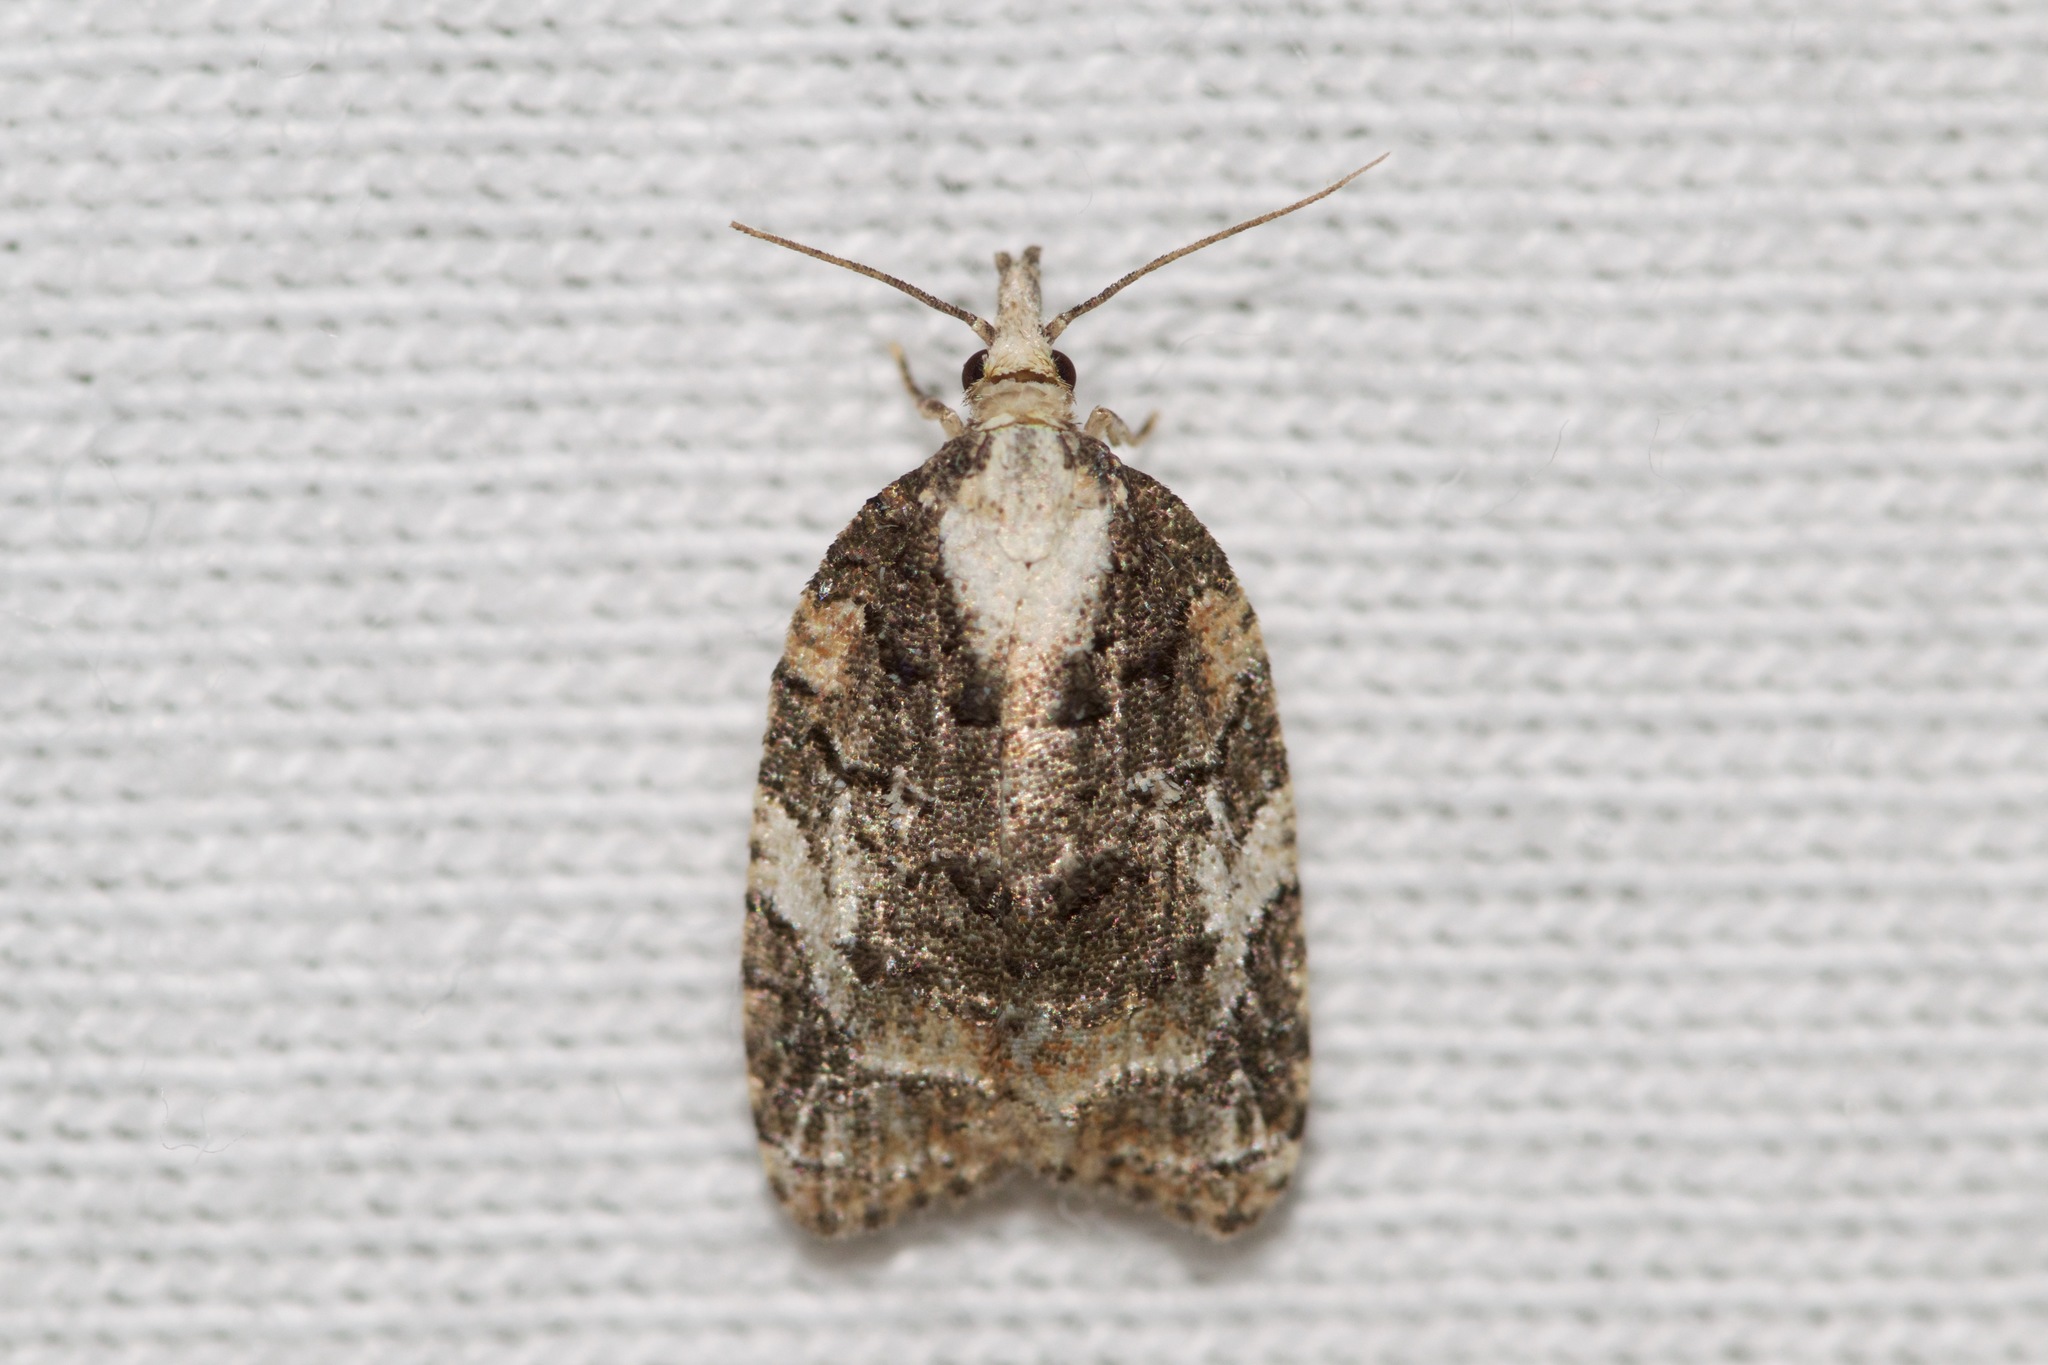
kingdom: Animalia
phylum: Arthropoda
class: Insecta
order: Lepidoptera
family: Tortricidae
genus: Platynota
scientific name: Platynota exasperatana
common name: Exasperating platynota moth
